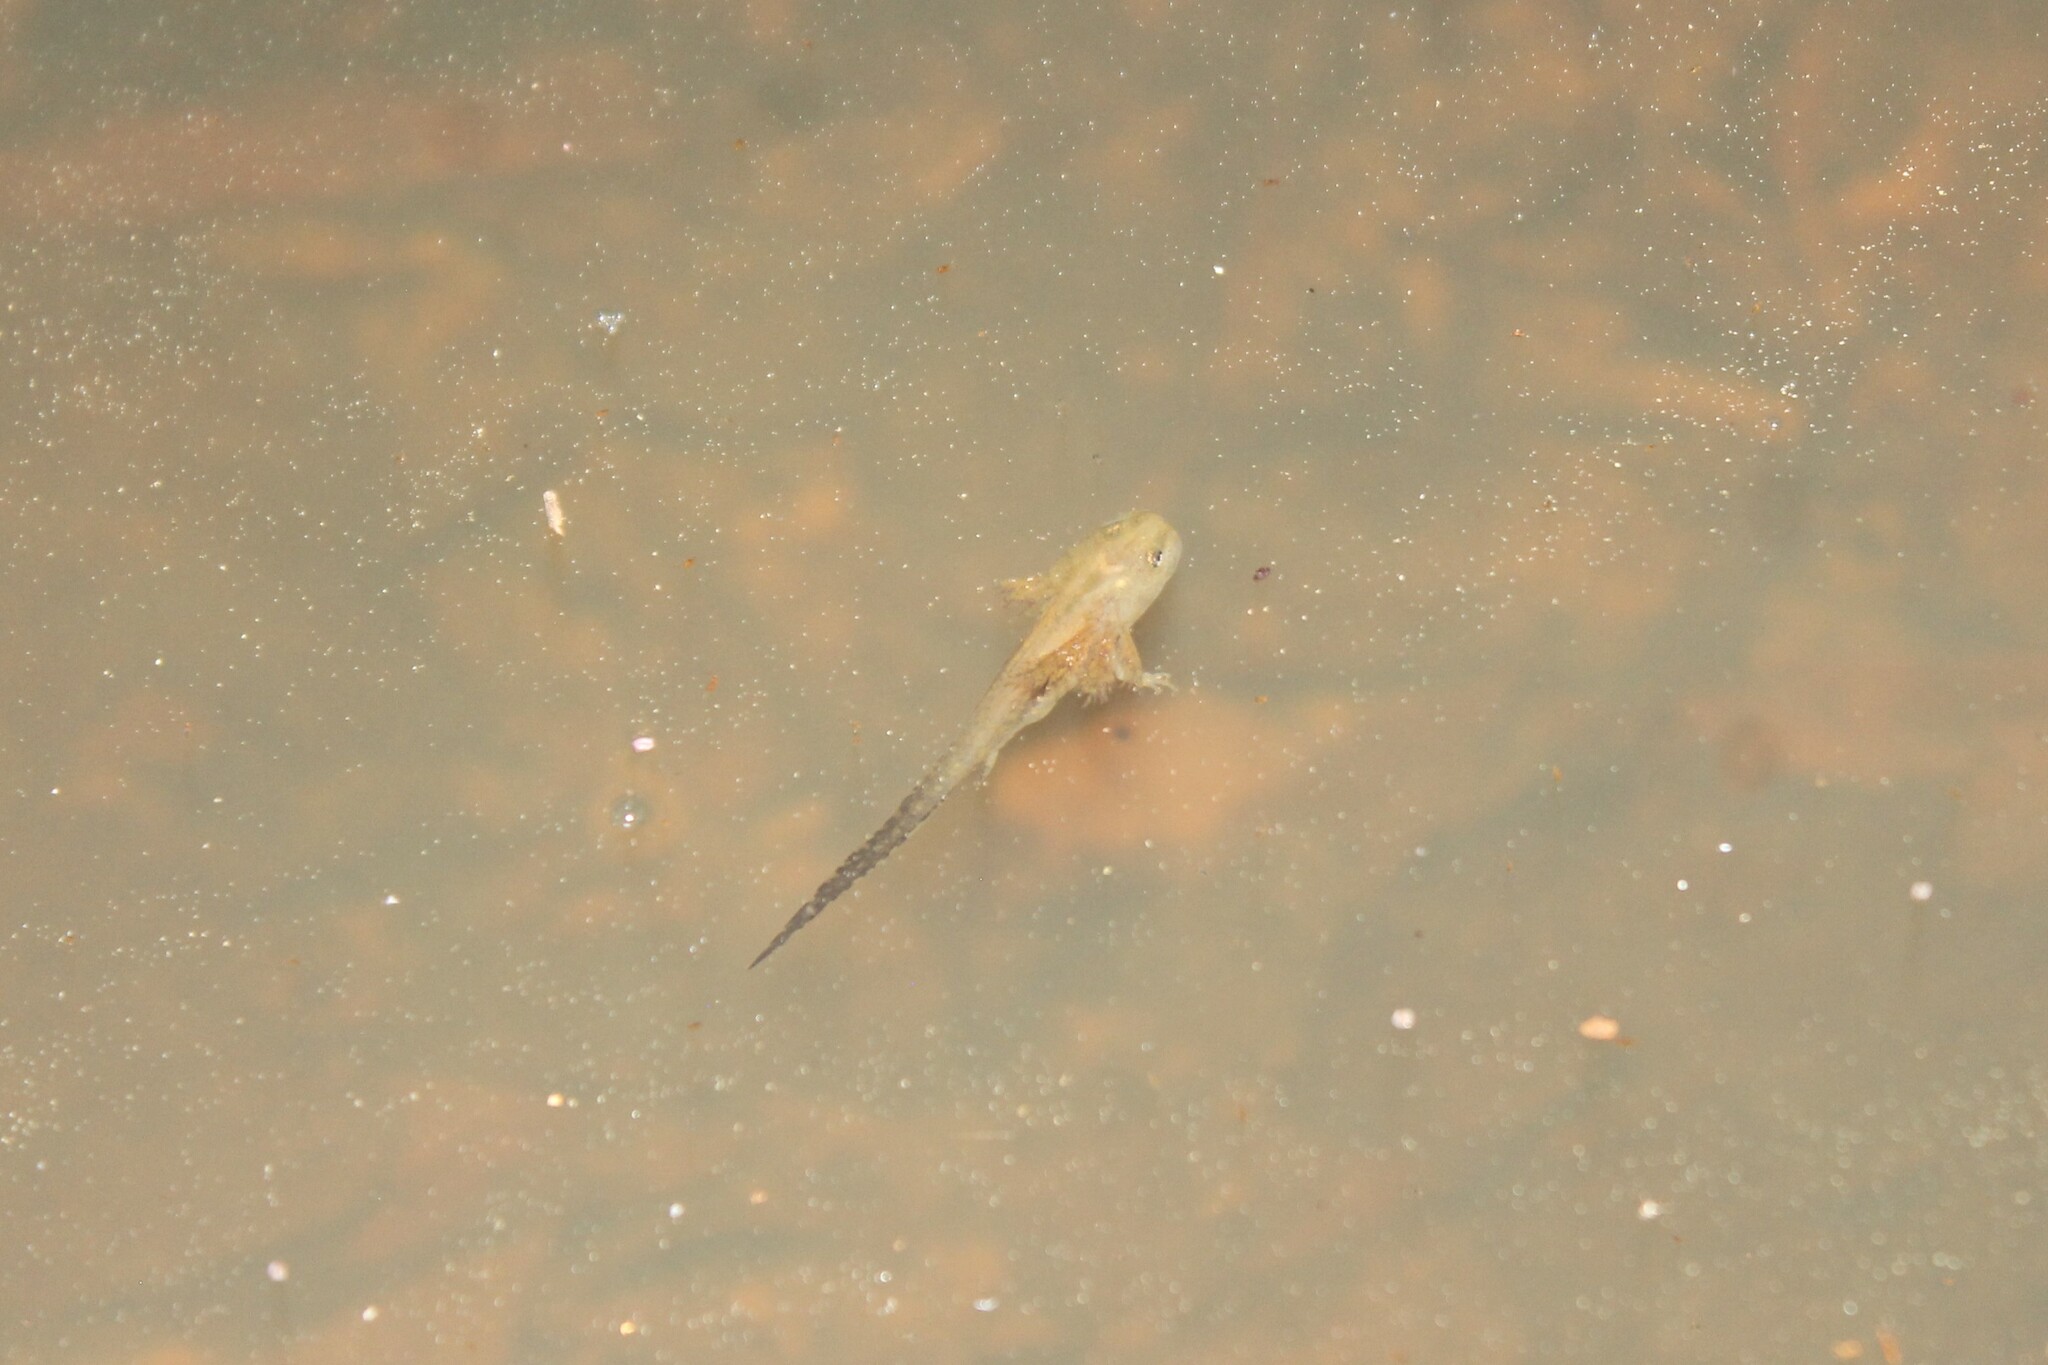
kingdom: Animalia
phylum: Chordata
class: Amphibia
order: Caudata
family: Ambystomatidae
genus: Ambystoma
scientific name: Ambystoma opacum
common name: Marbled salamander
